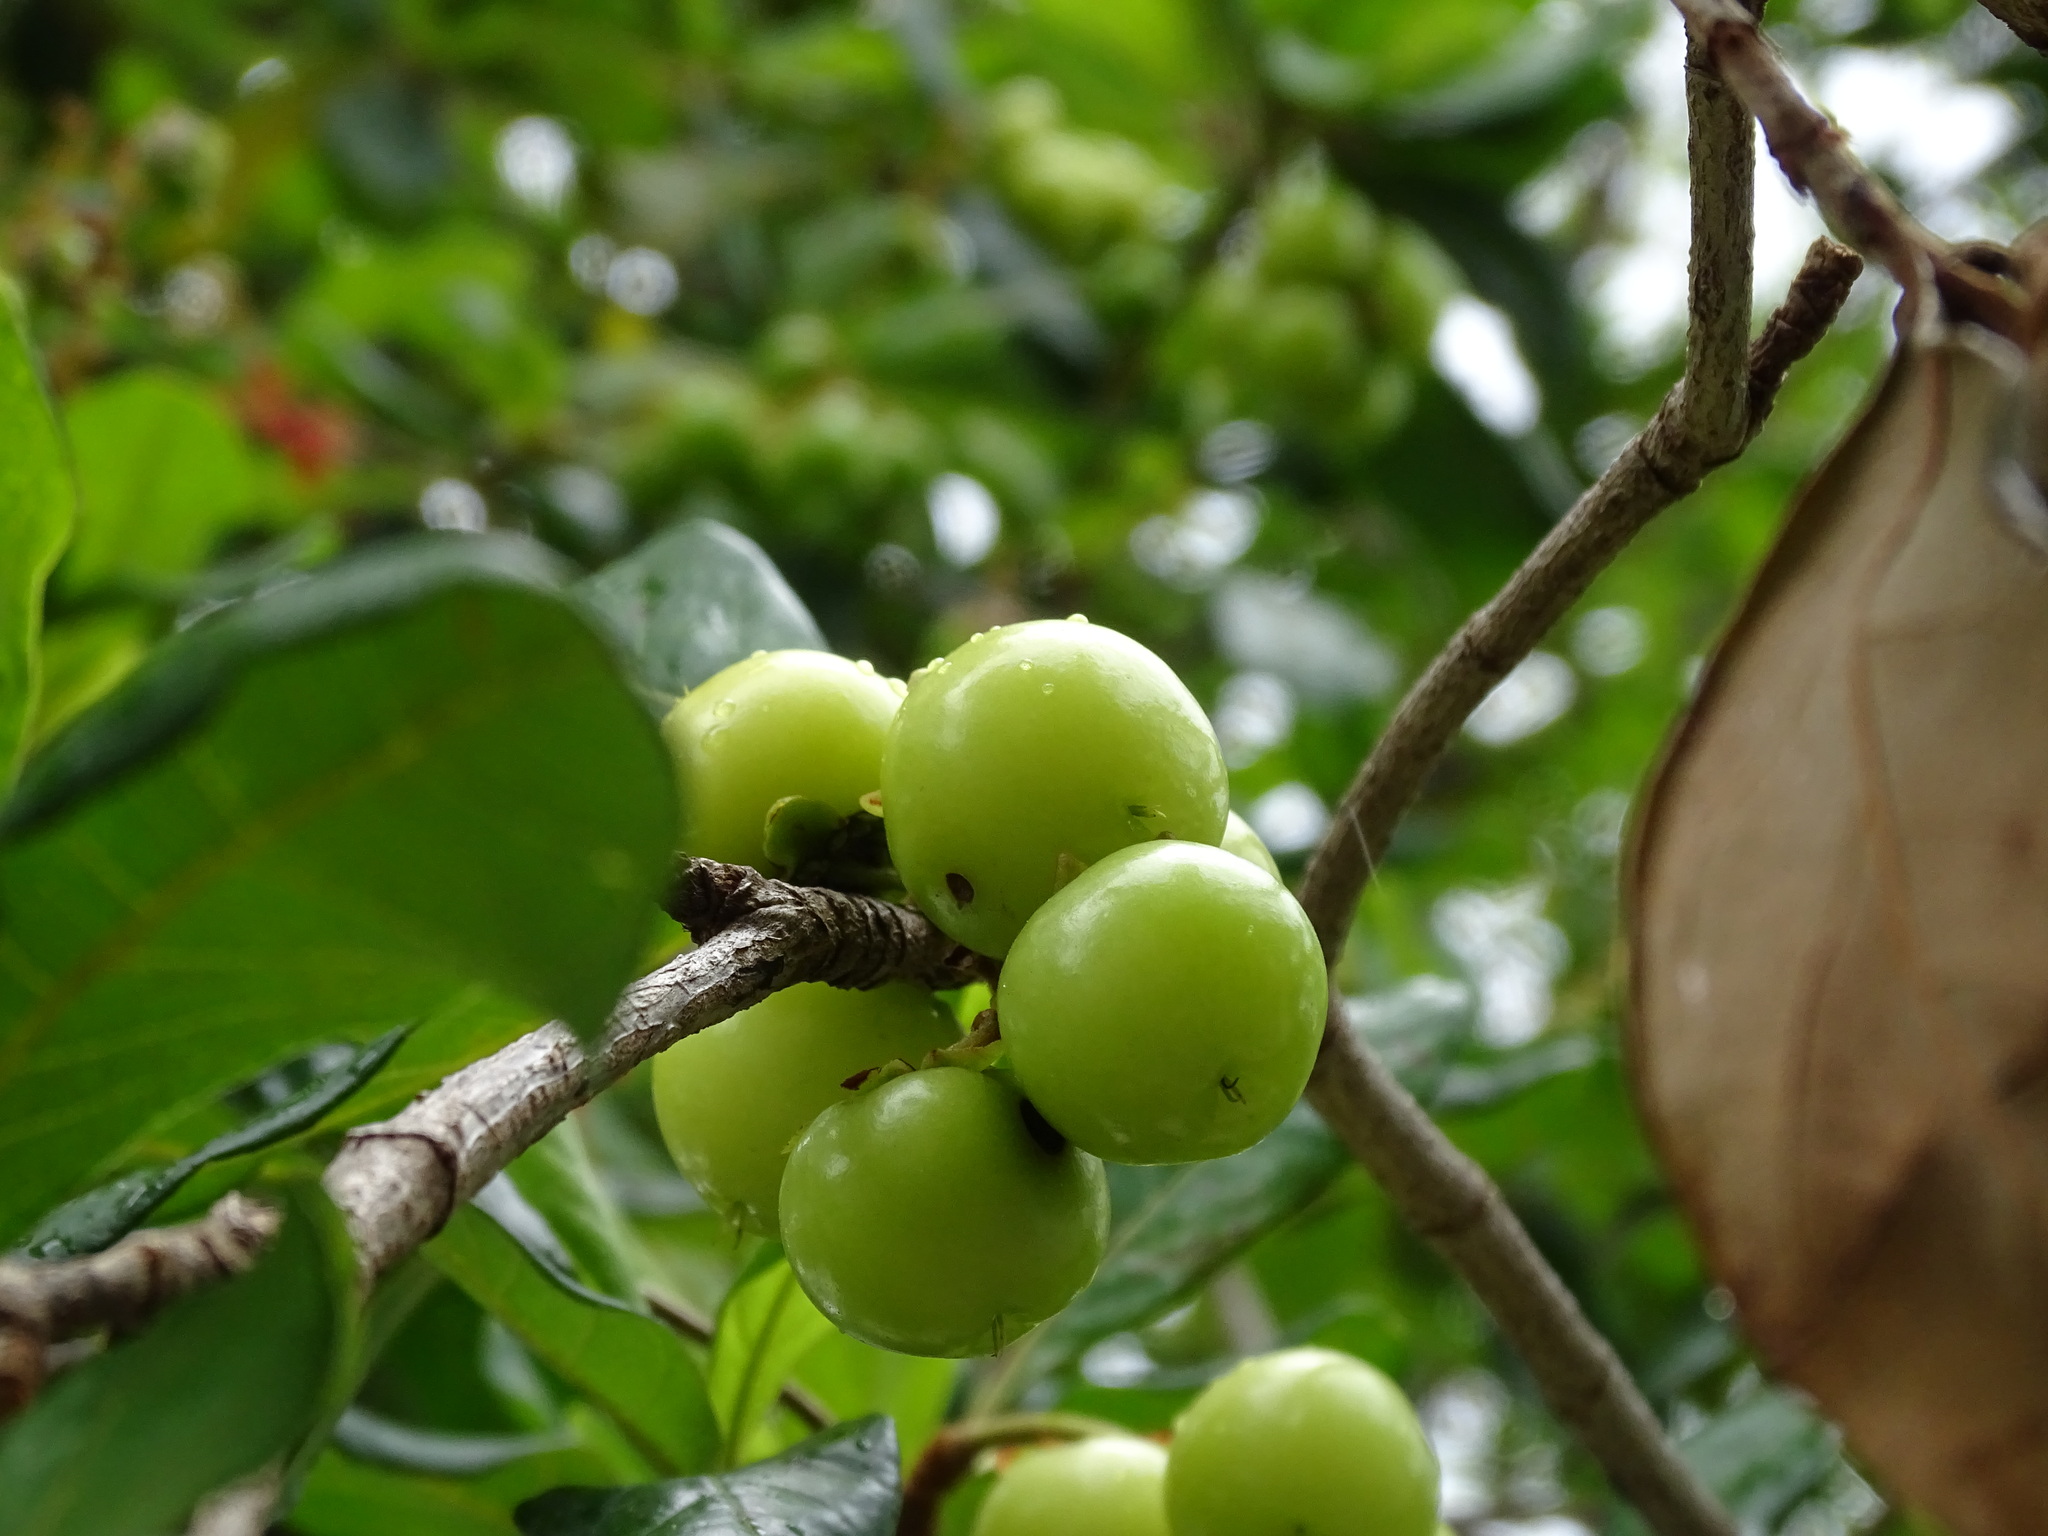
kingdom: Plantae
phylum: Tracheophyta
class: Magnoliopsida
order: Malpighiales
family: Malpighiaceae
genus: Byrsonima
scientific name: Byrsonima roigii
